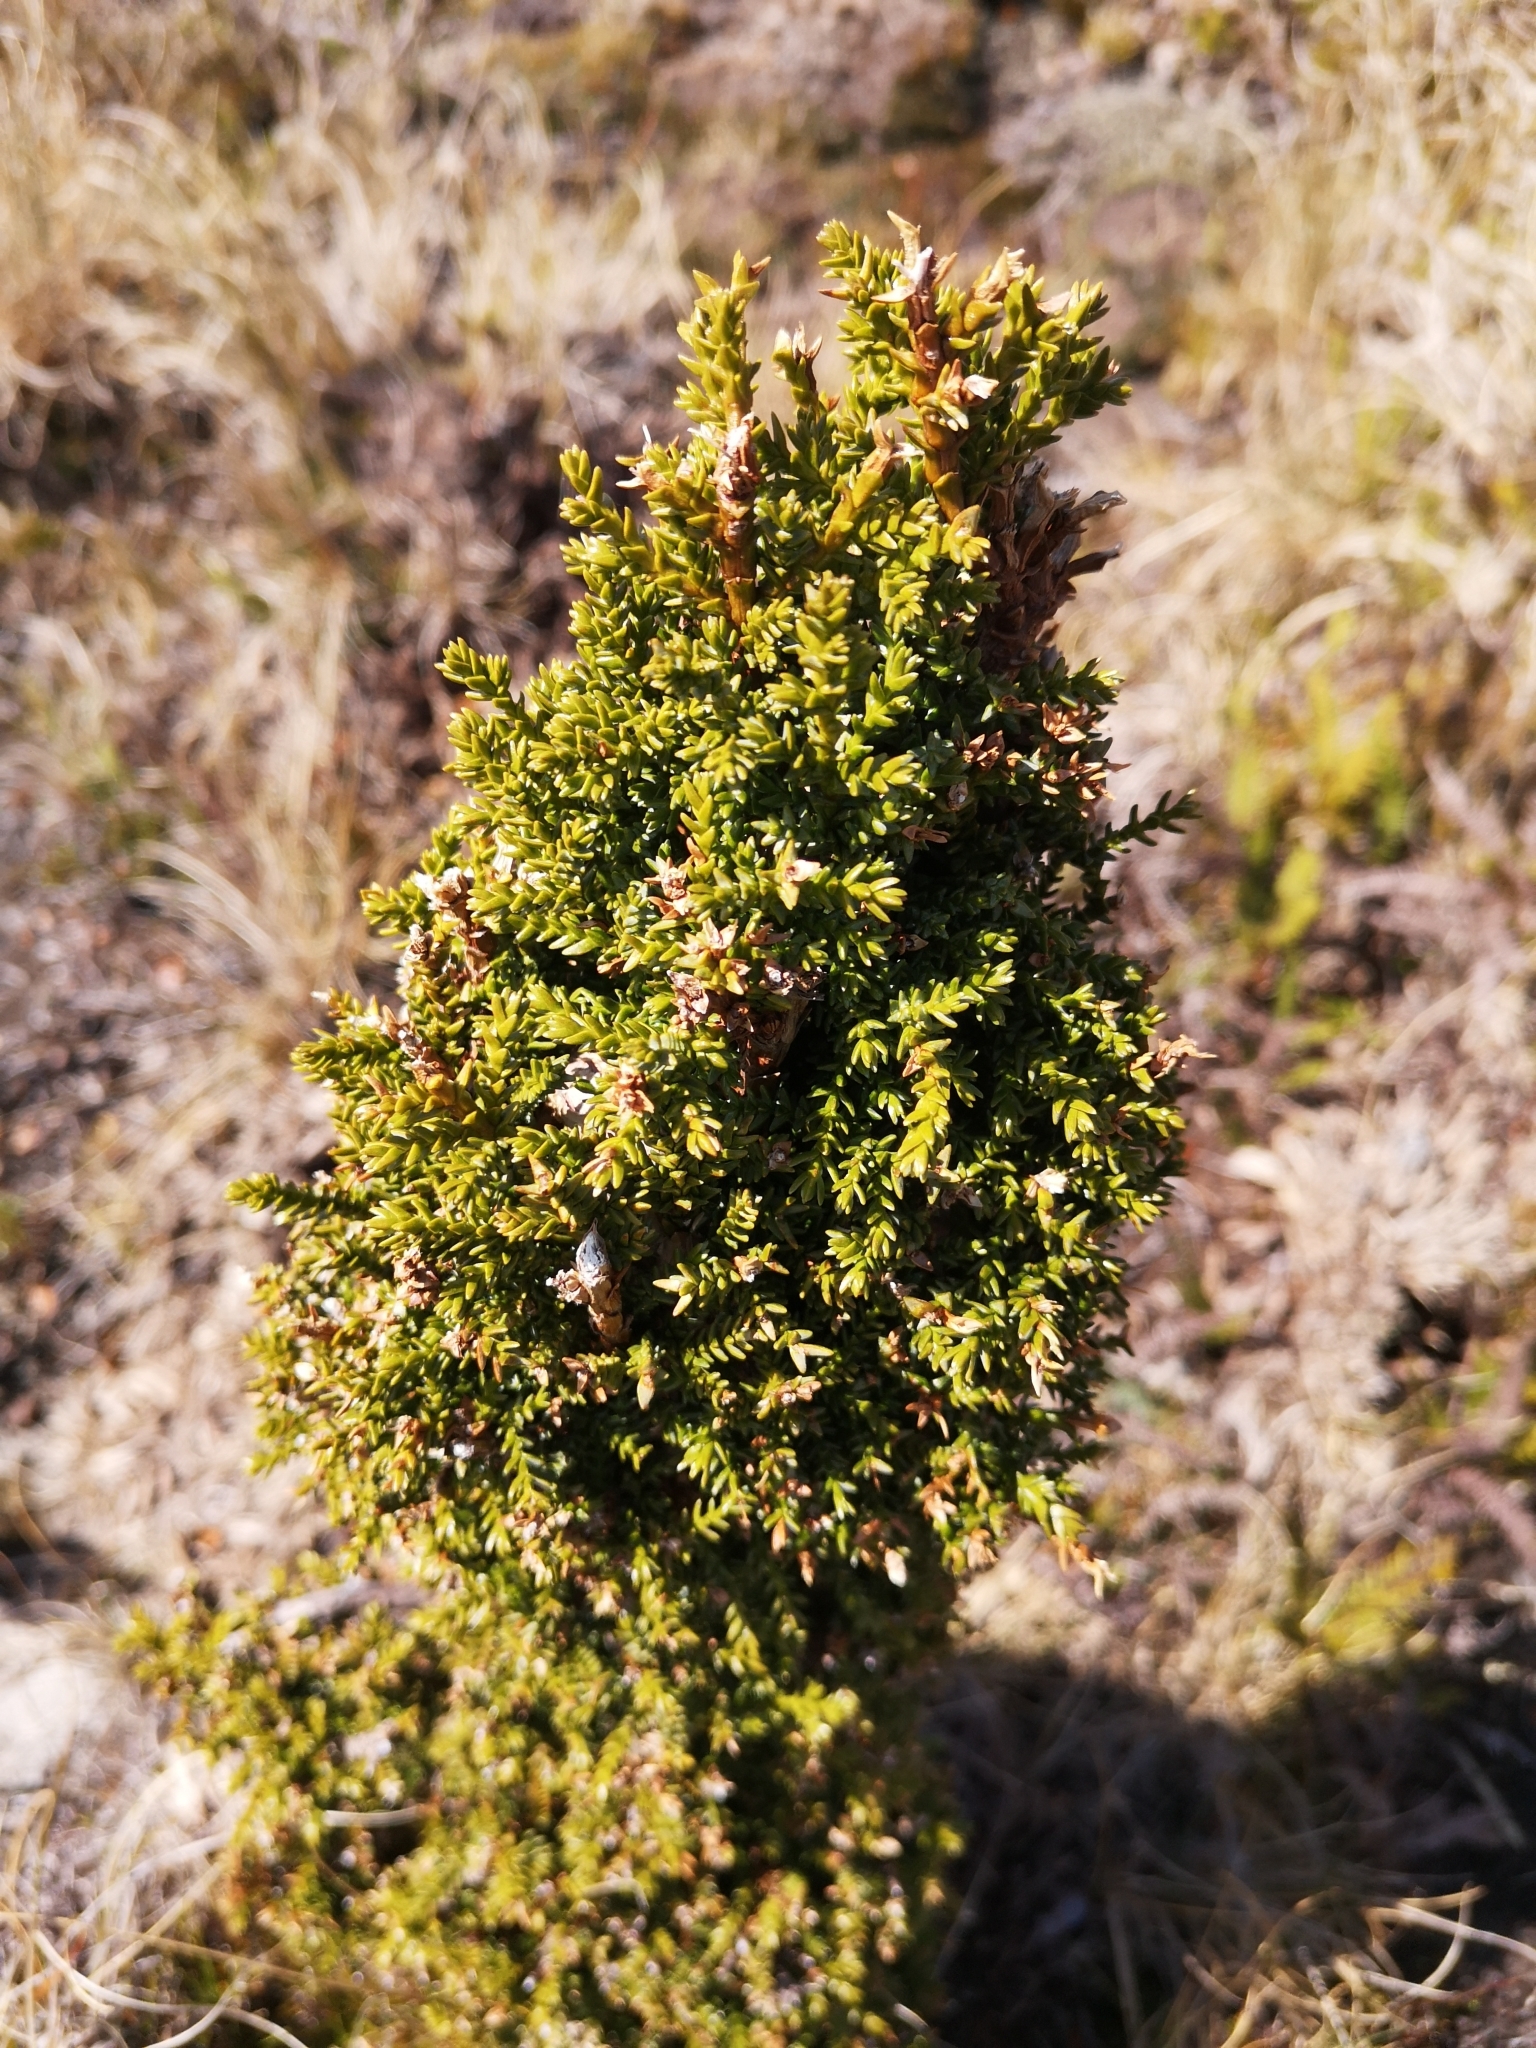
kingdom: Plantae
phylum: Tracheophyta
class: Pinopsida
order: Pinales
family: Cupressaceae
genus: Pilgerodendron
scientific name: Pilgerodendron uviferum
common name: Guaitecas cypress
